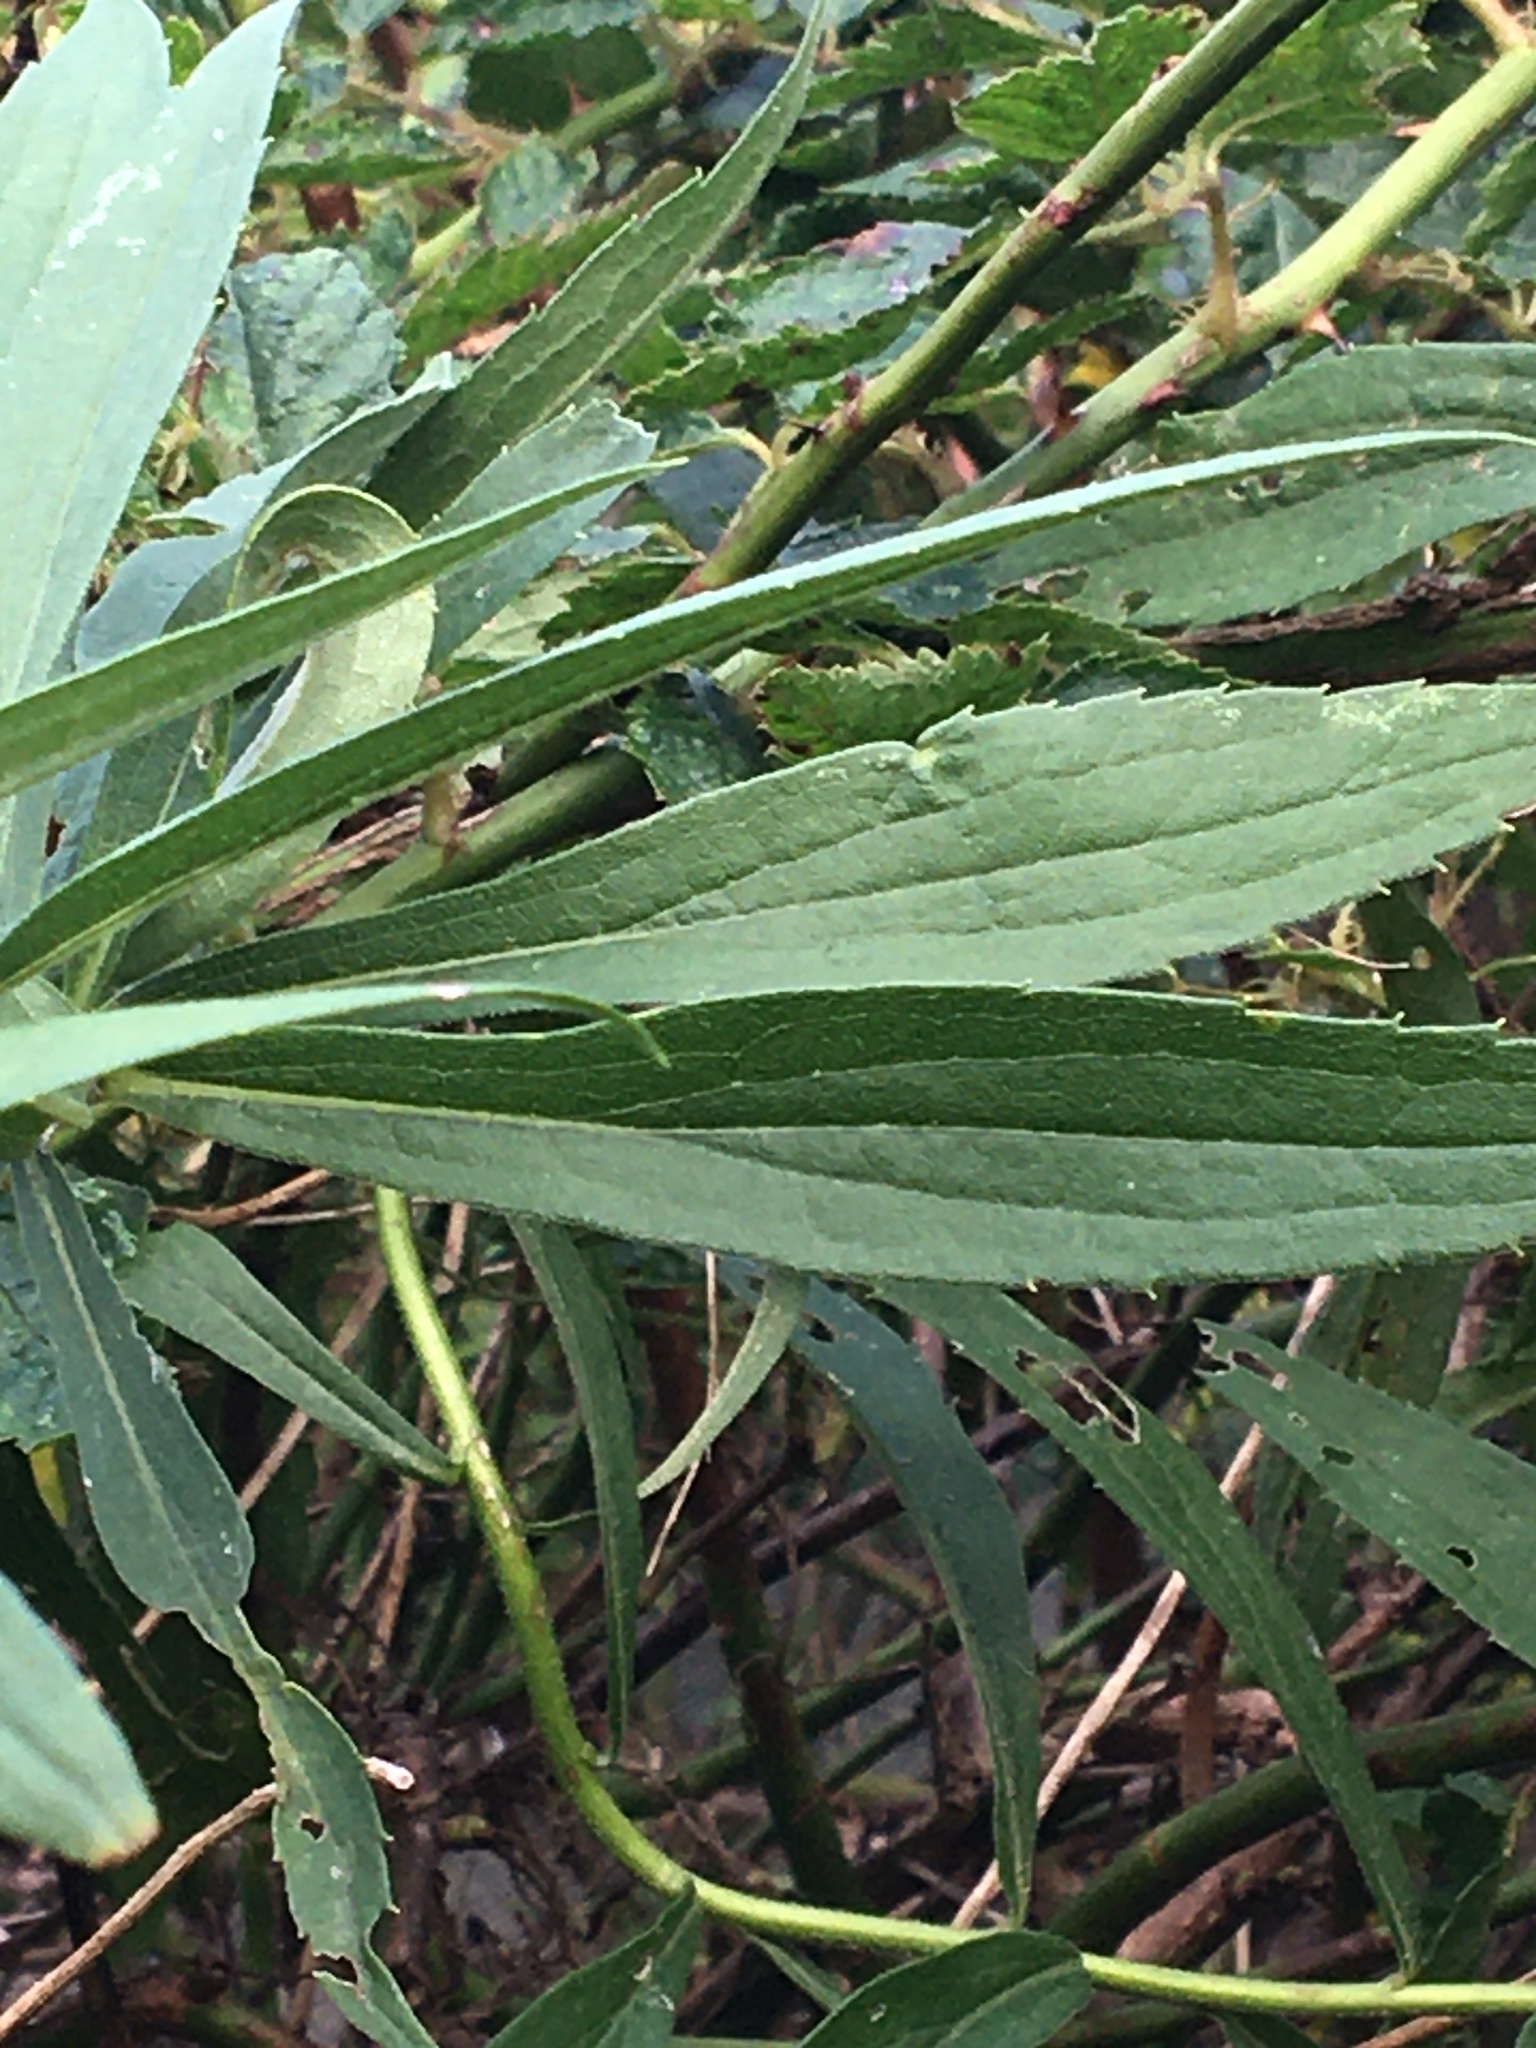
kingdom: Plantae
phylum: Tracheophyta
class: Magnoliopsida
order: Asterales
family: Asteraceae
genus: Solidago
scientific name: Solidago
